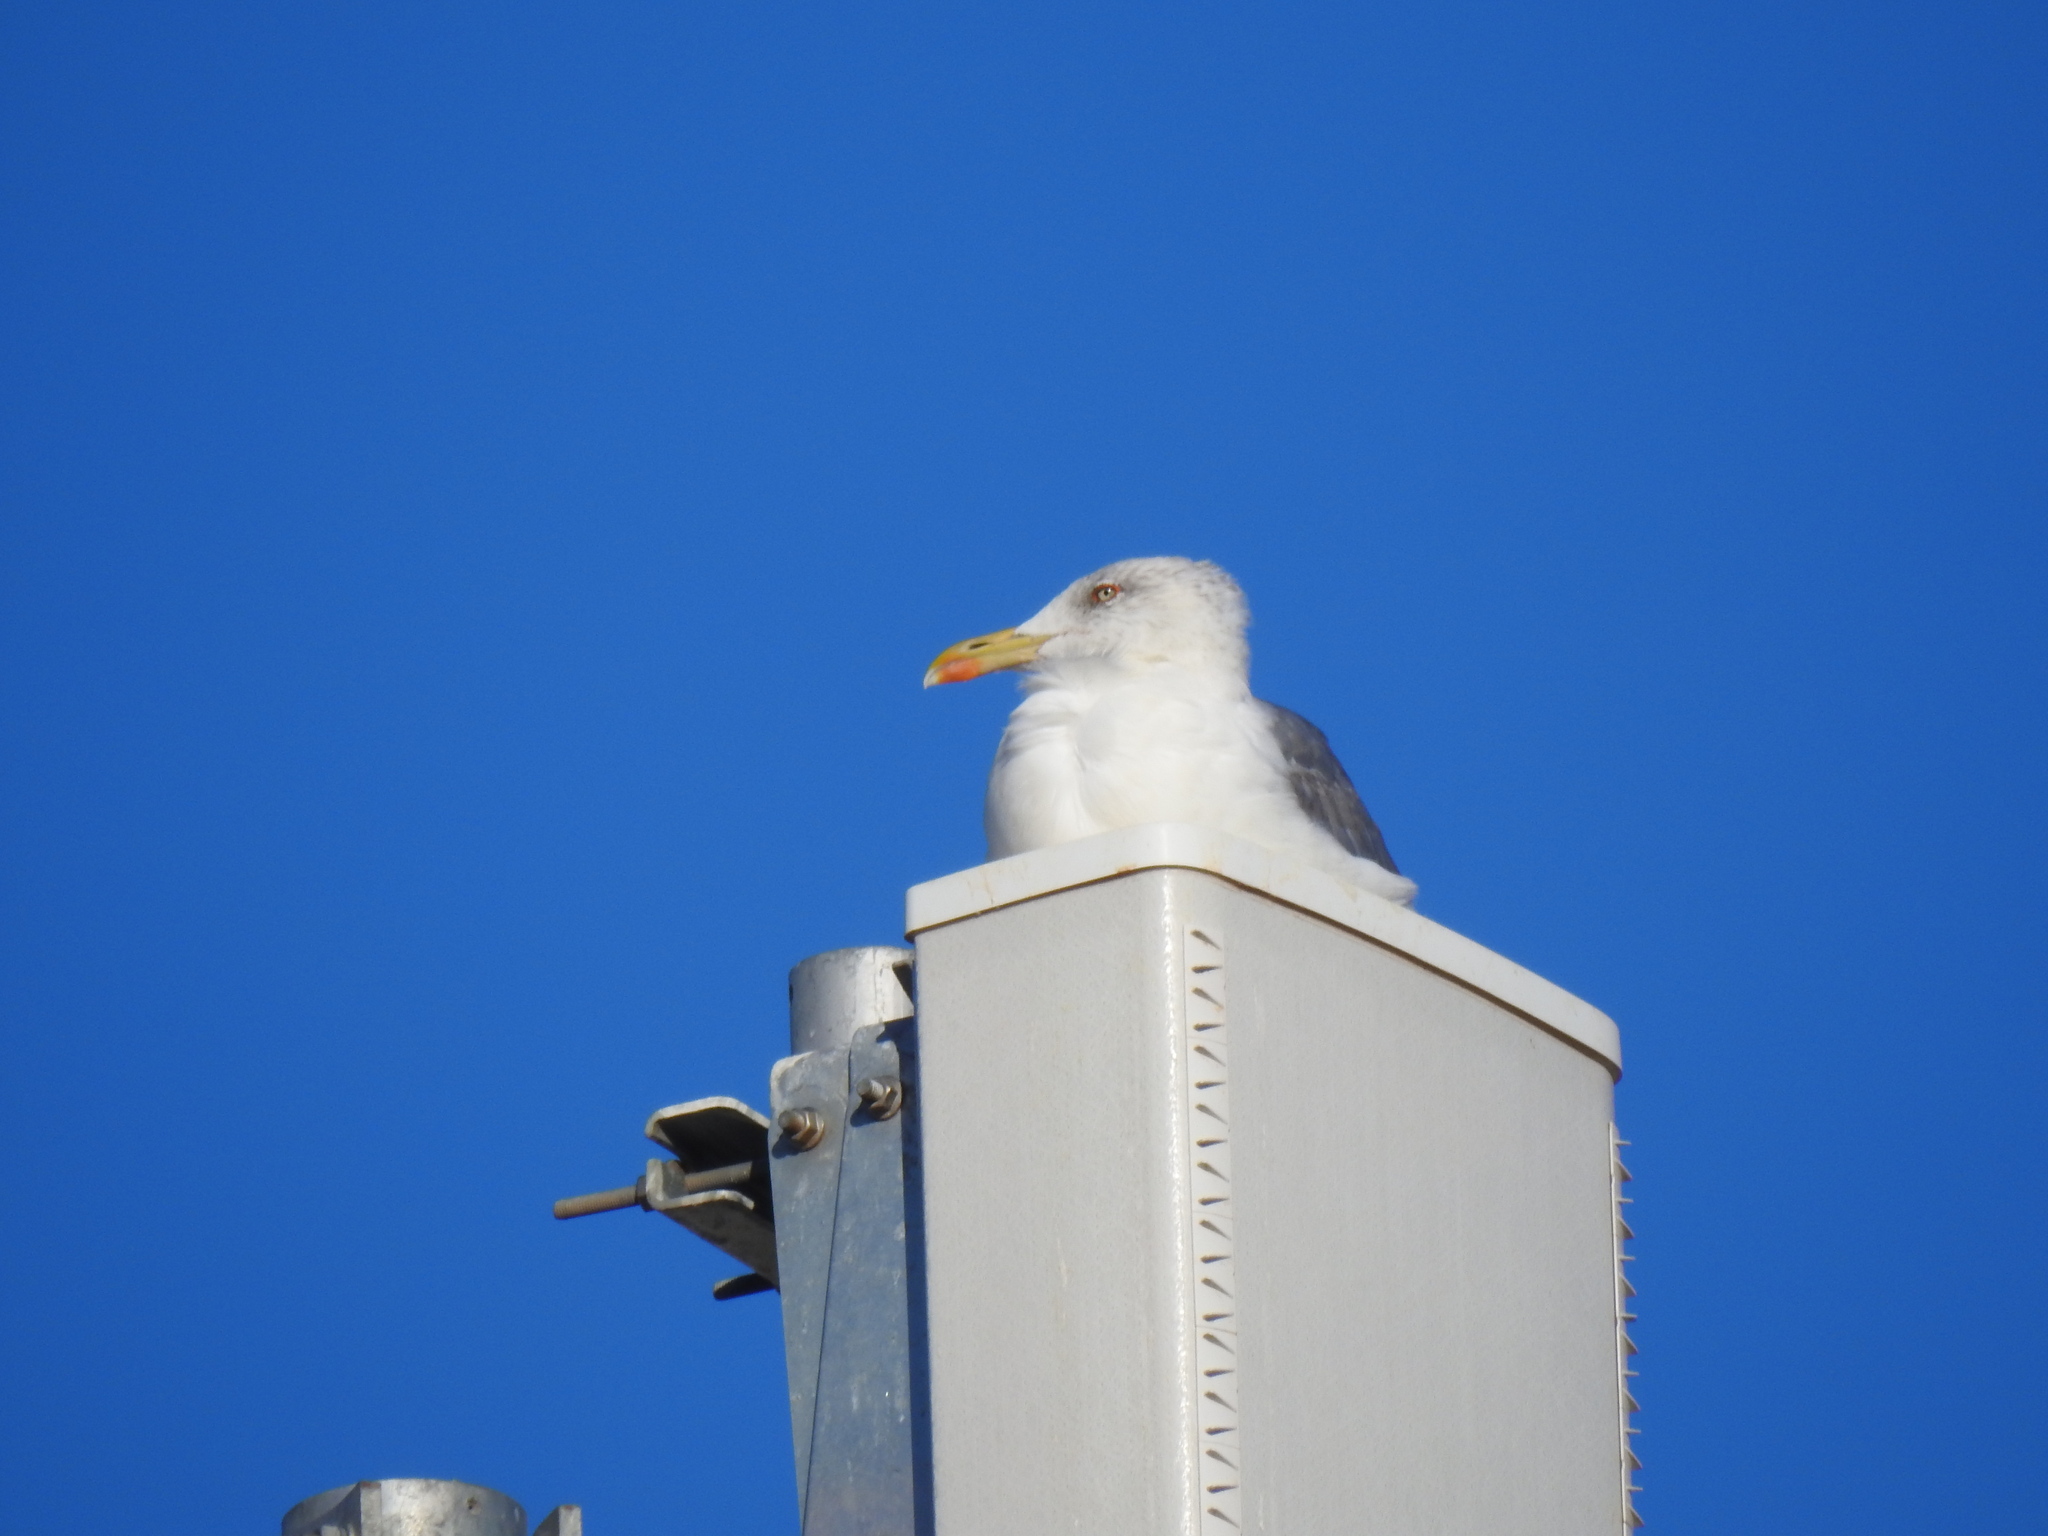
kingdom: Animalia
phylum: Chordata
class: Aves
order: Charadriiformes
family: Laridae
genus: Larus
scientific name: Larus michahellis
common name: Yellow-legged gull
